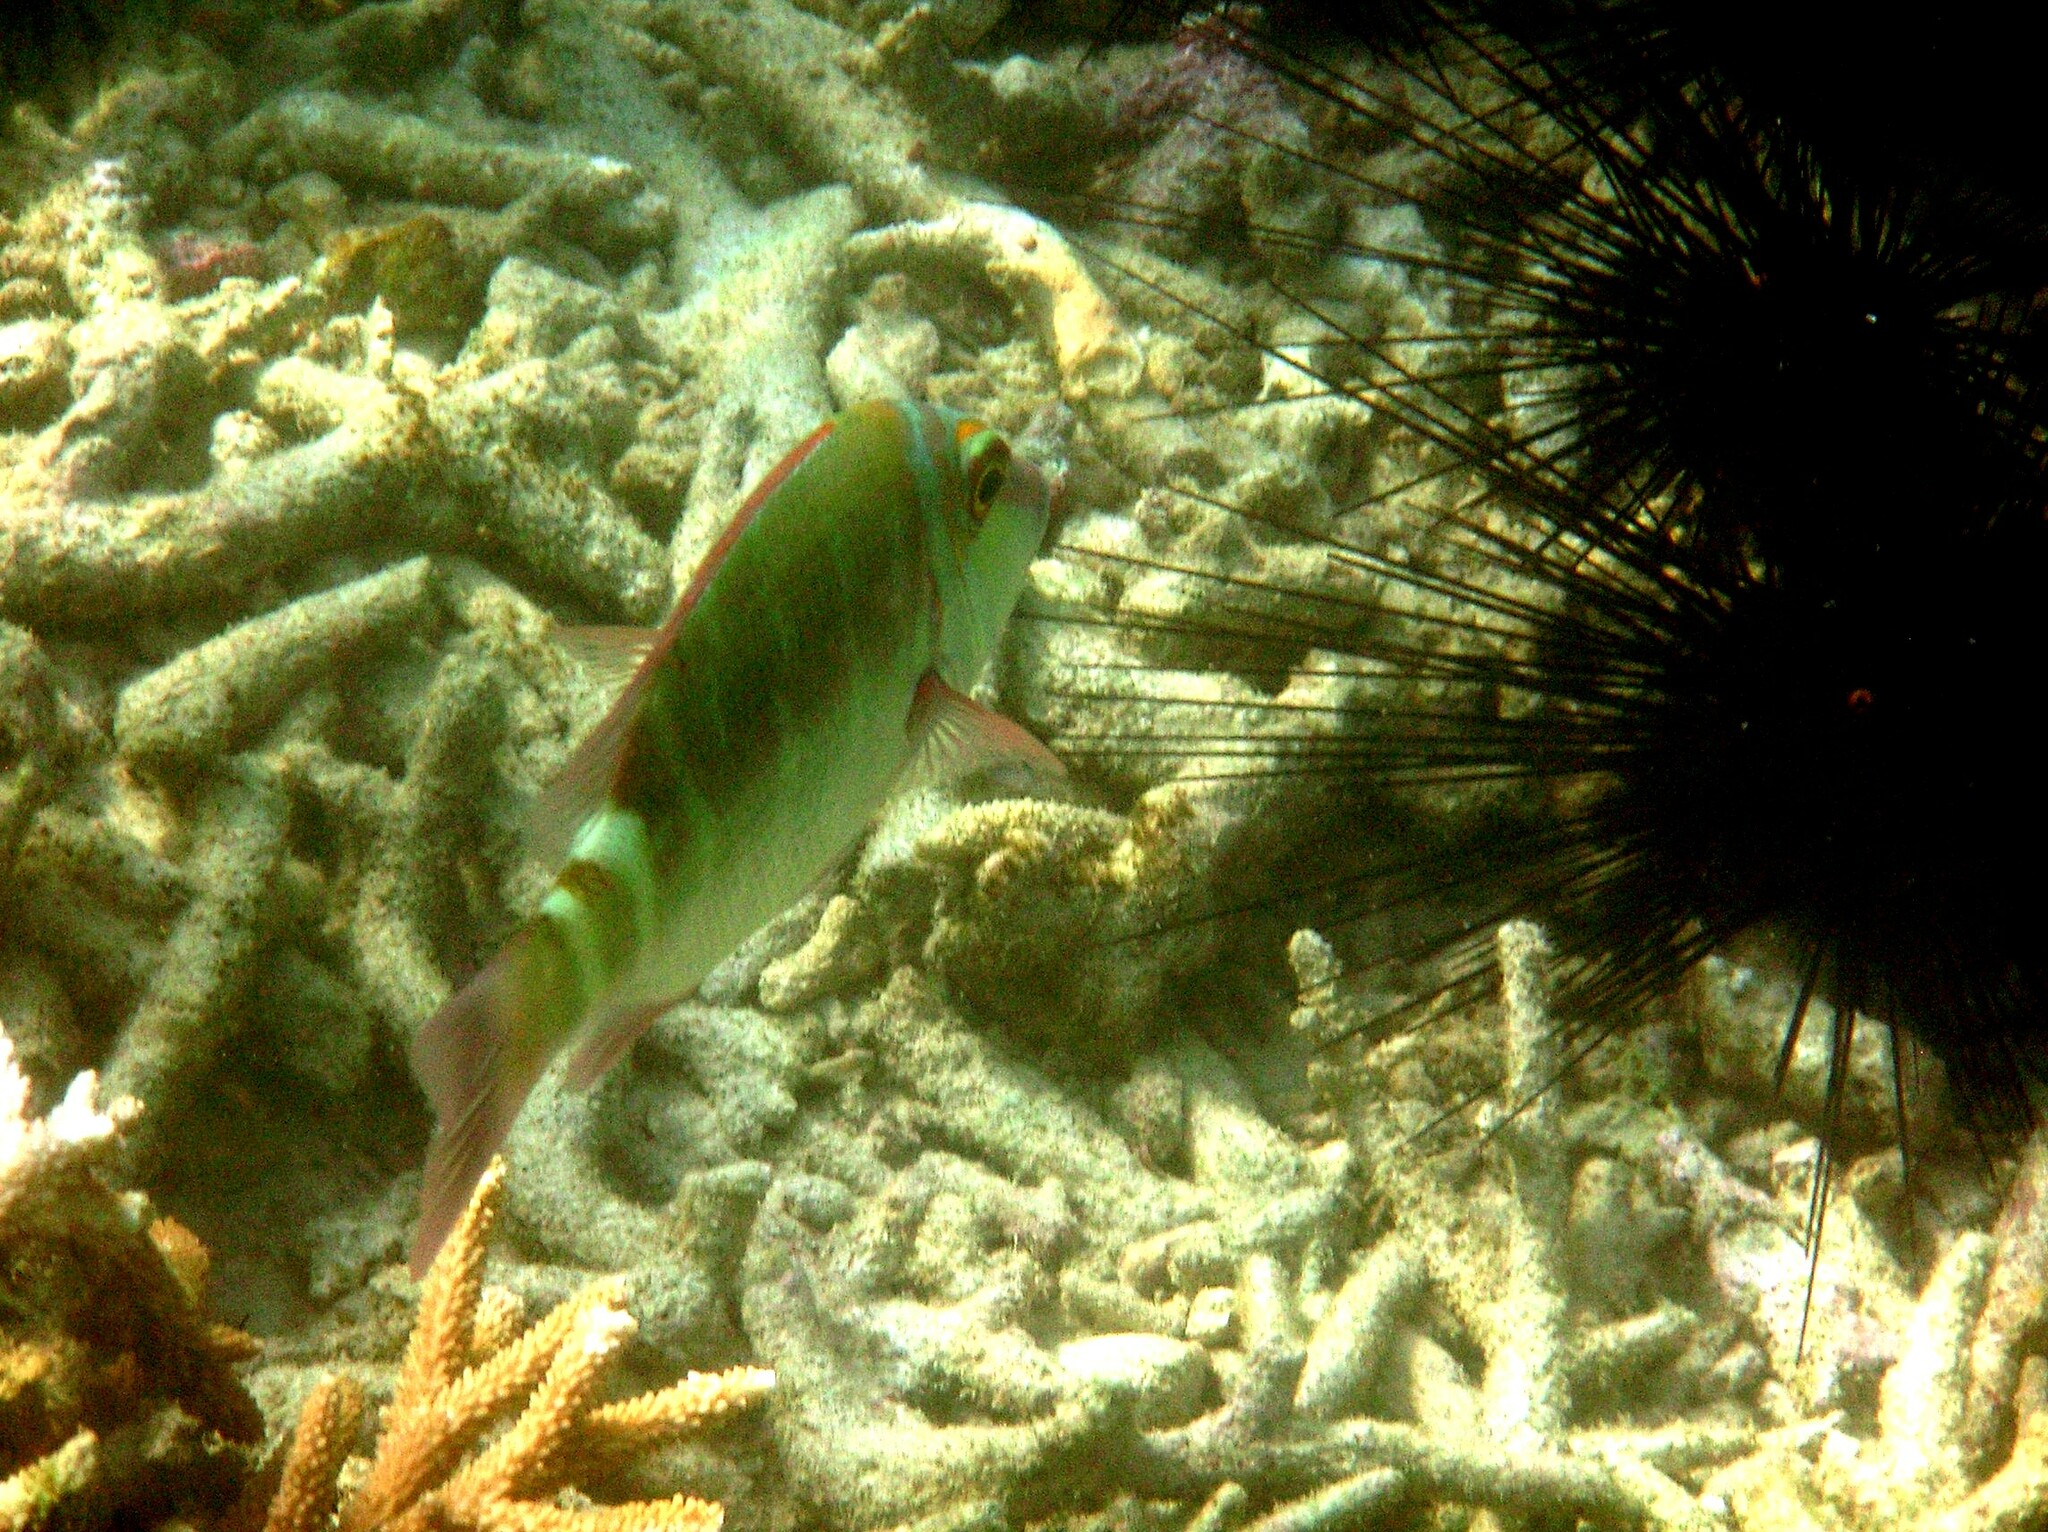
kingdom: Animalia
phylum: Chordata
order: Perciformes
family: Lethrinidae
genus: Lethrinus
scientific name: Lethrinus erythropterus
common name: Longfin emperor
